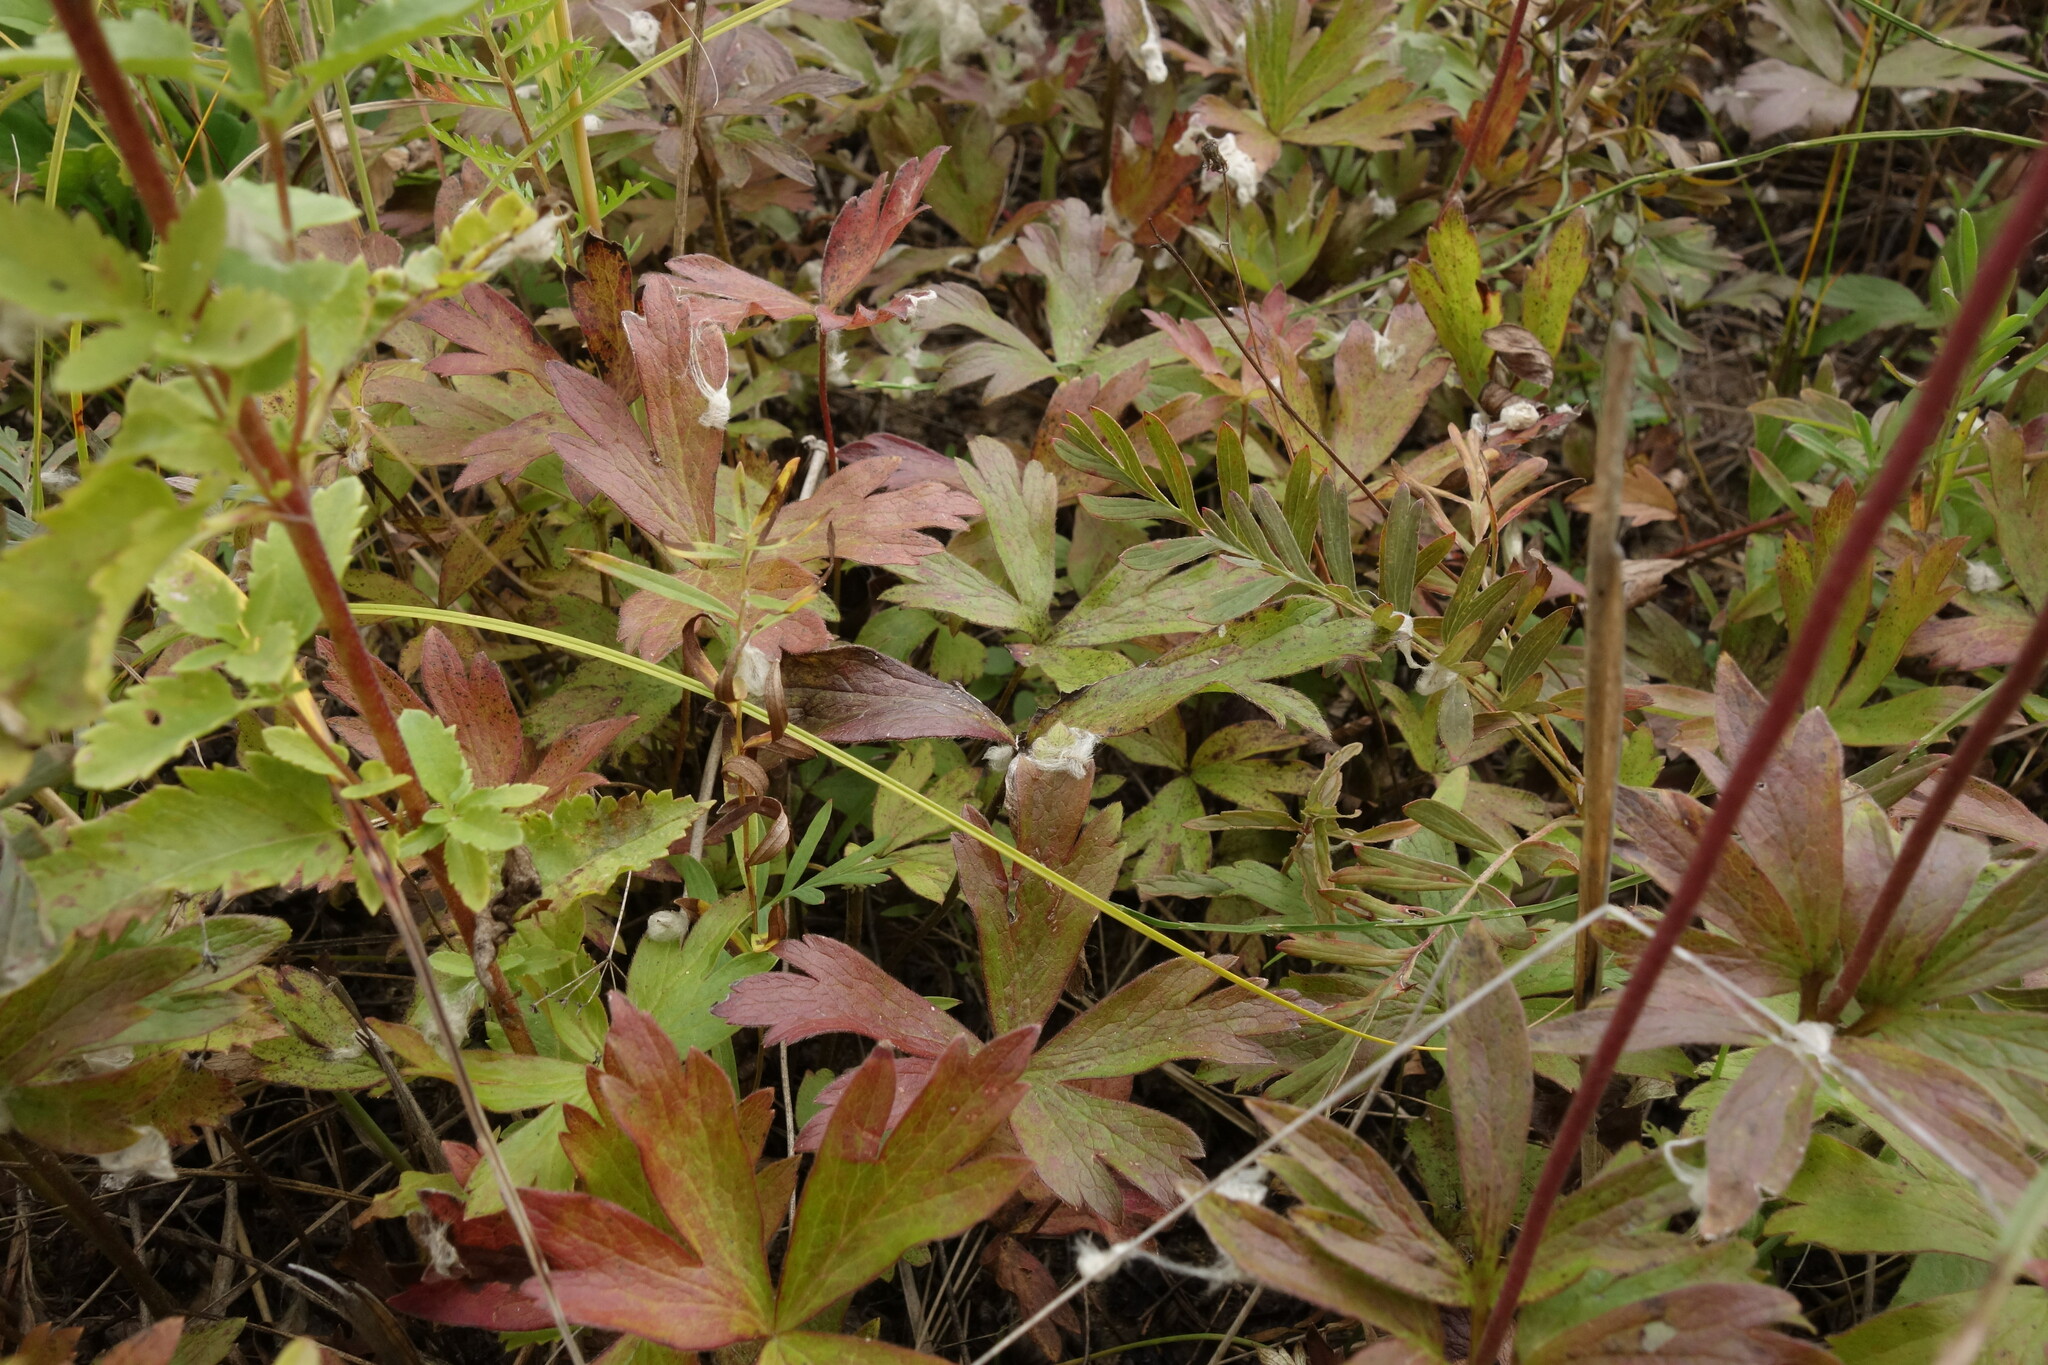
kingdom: Plantae
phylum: Tracheophyta
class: Magnoliopsida
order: Ranunculales
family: Ranunculaceae
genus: Anemone
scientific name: Anemone sylvestris
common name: Snowdrop anemone
